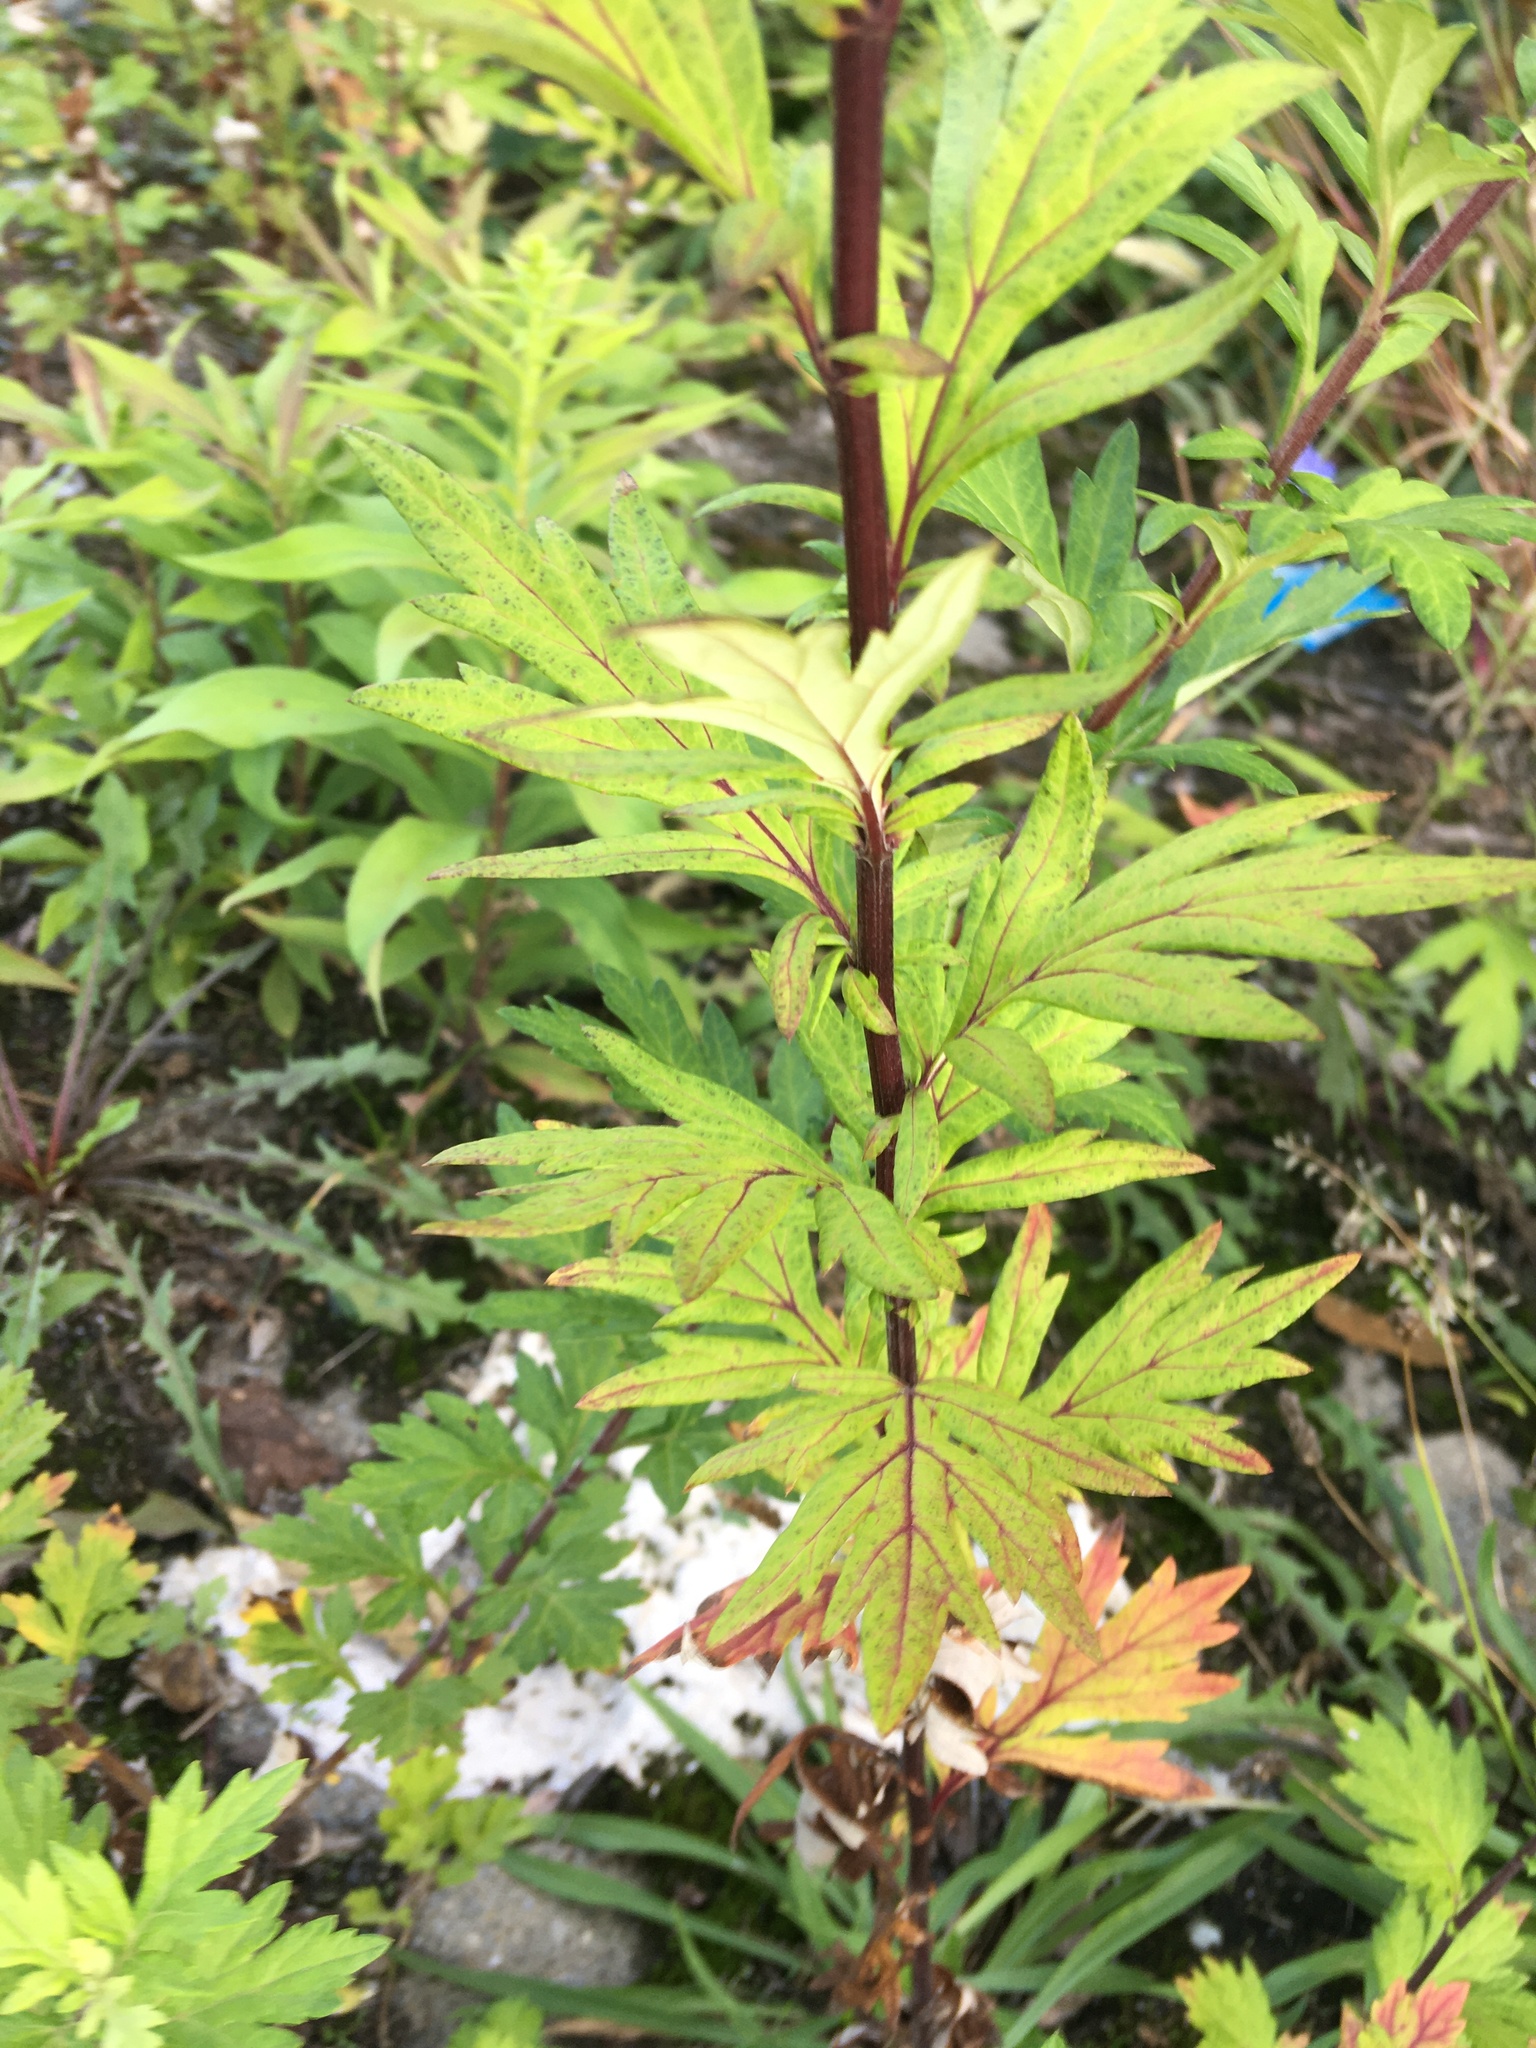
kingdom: Plantae
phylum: Tracheophyta
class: Magnoliopsida
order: Asterales
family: Asteraceae
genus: Artemisia
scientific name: Artemisia vulgaris
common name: Mugwort
